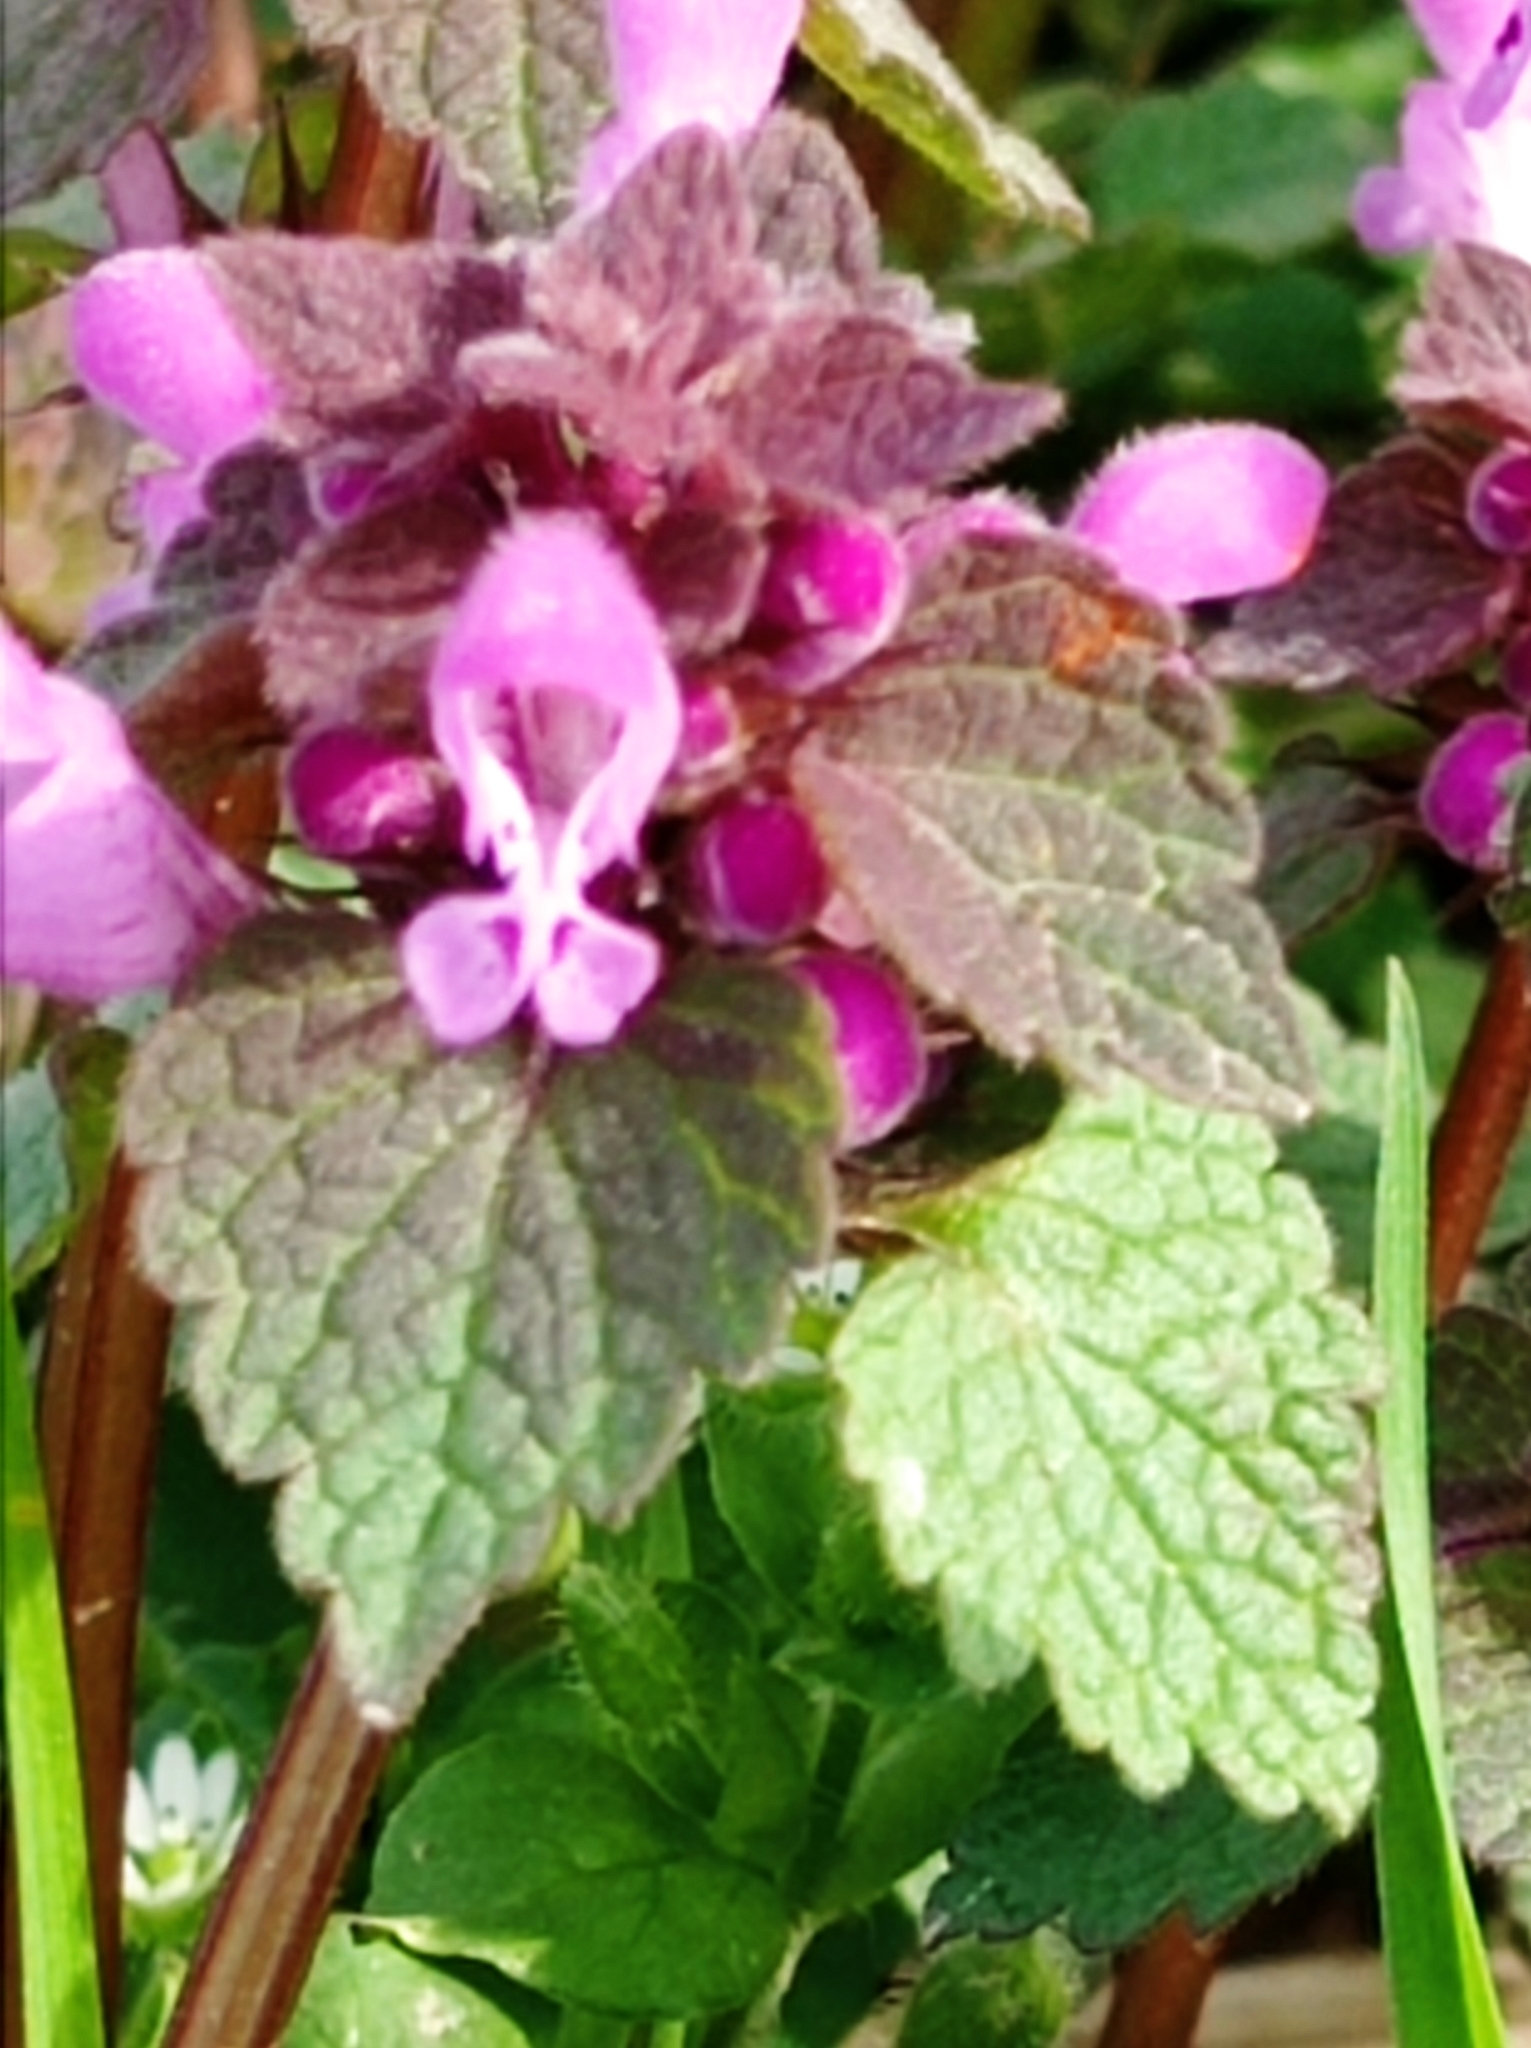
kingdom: Plantae
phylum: Tracheophyta
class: Magnoliopsida
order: Lamiales
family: Lamiaceae
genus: Lamium
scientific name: Lamium purpureum
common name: Red dead-nettle
